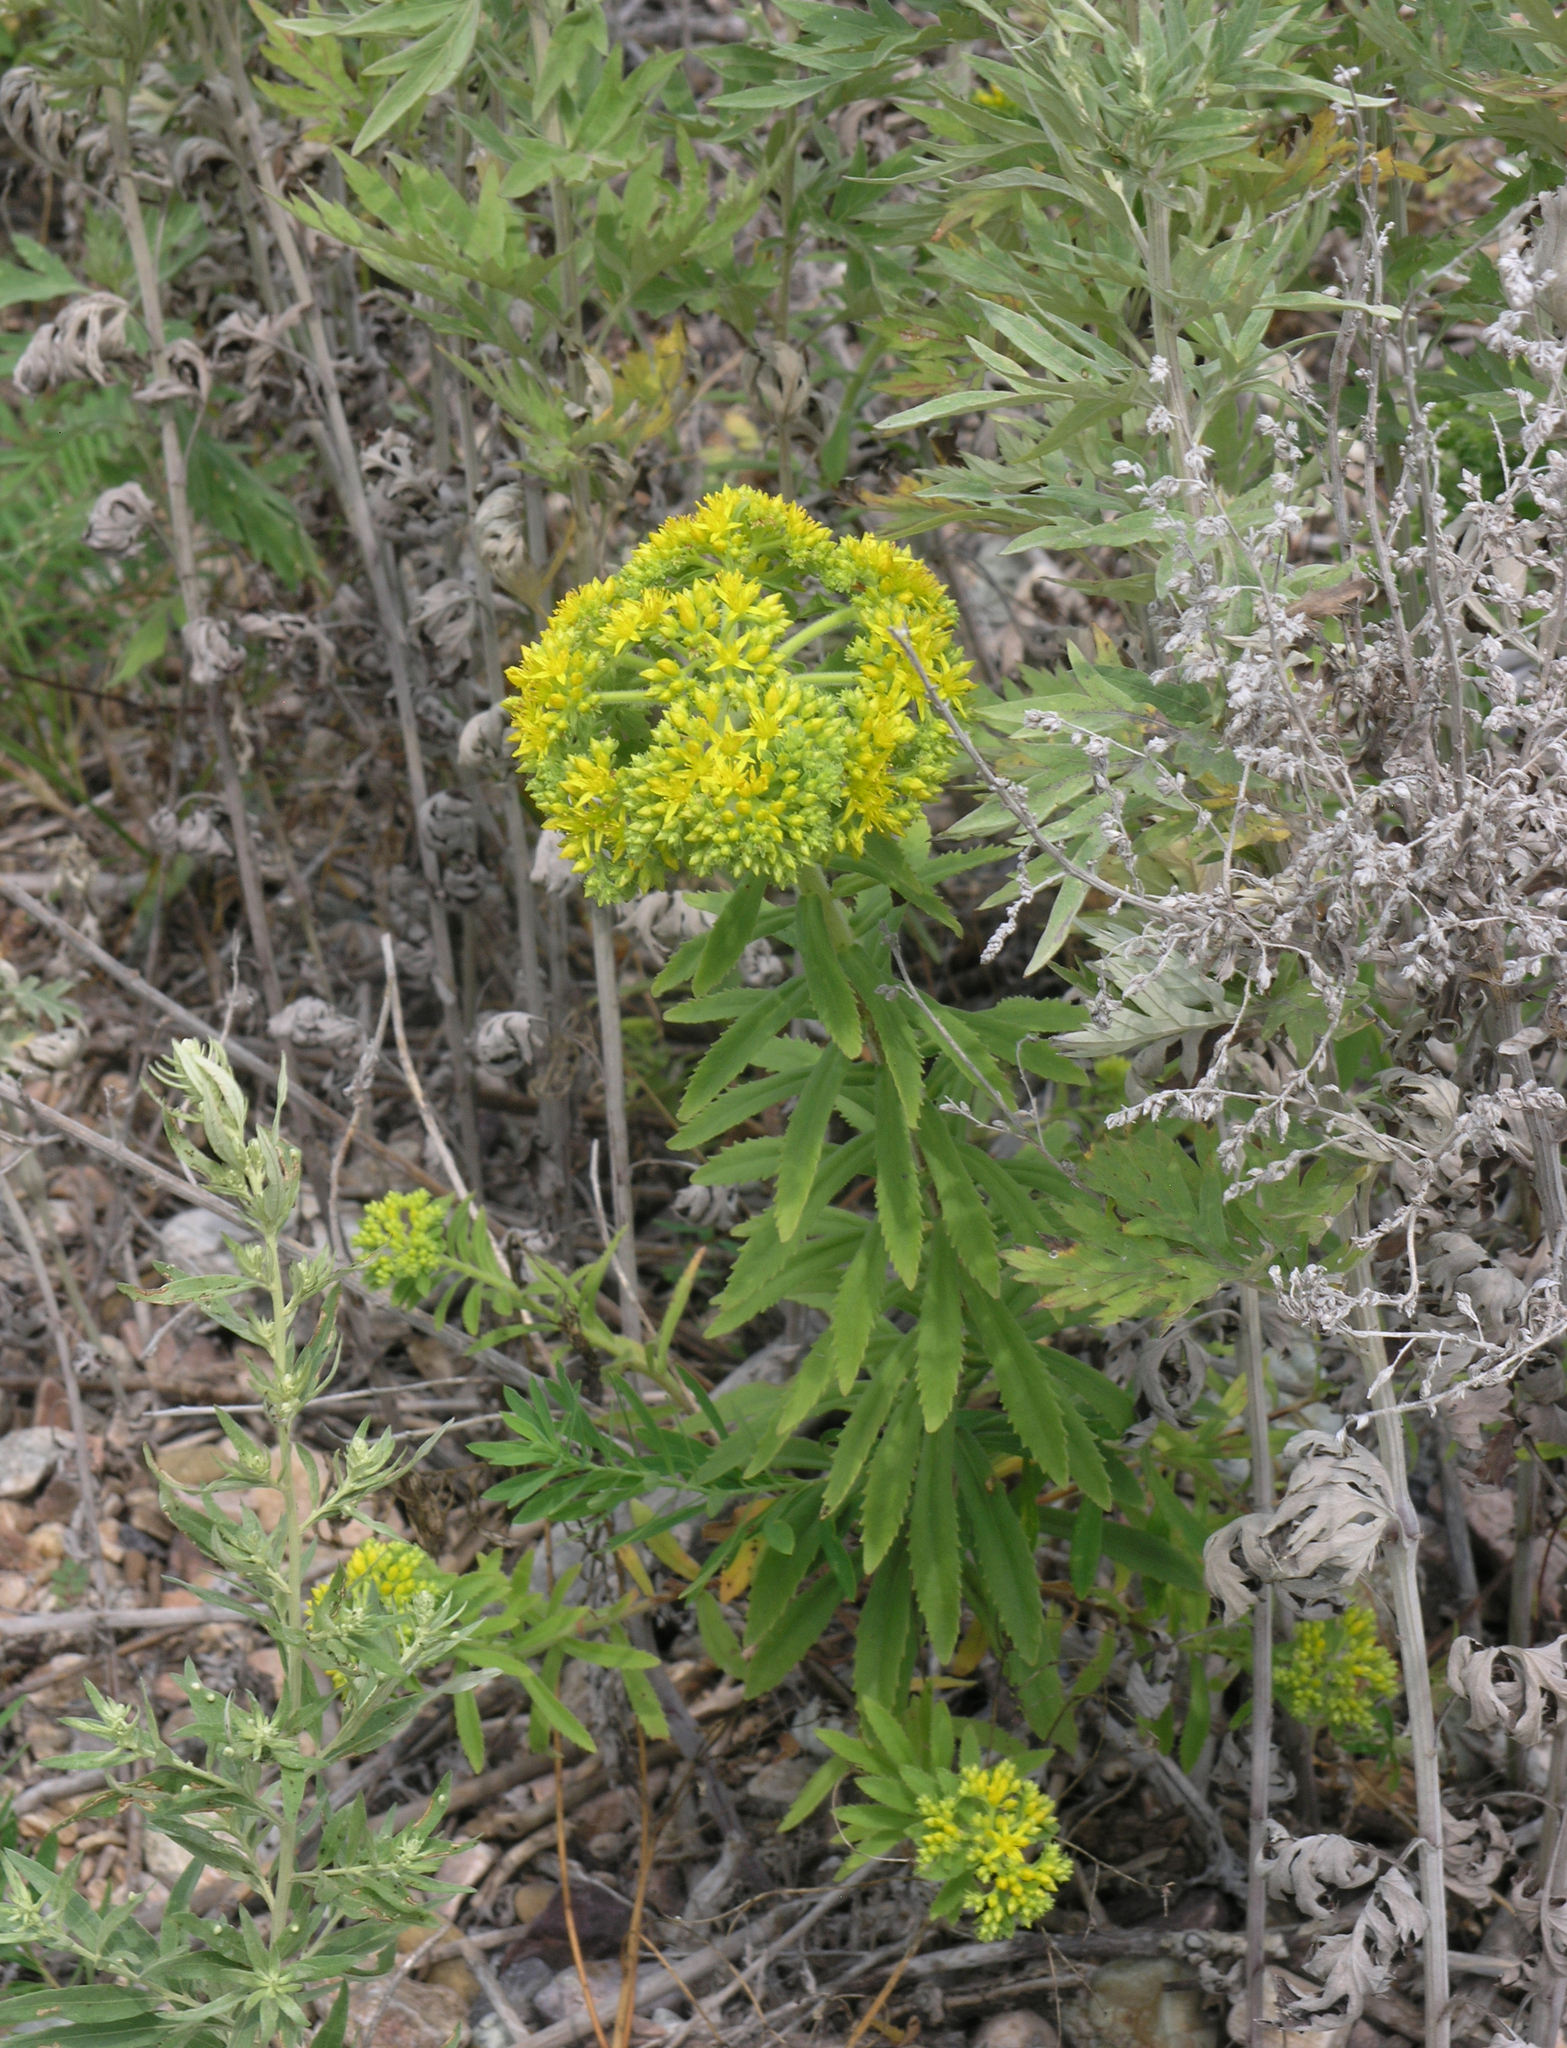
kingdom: Plantae
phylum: Tracheophyta
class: Magnoliopsida
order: Saxifragales
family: Crassulaceae
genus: Phedimus
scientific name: Phedimus selskanianus
